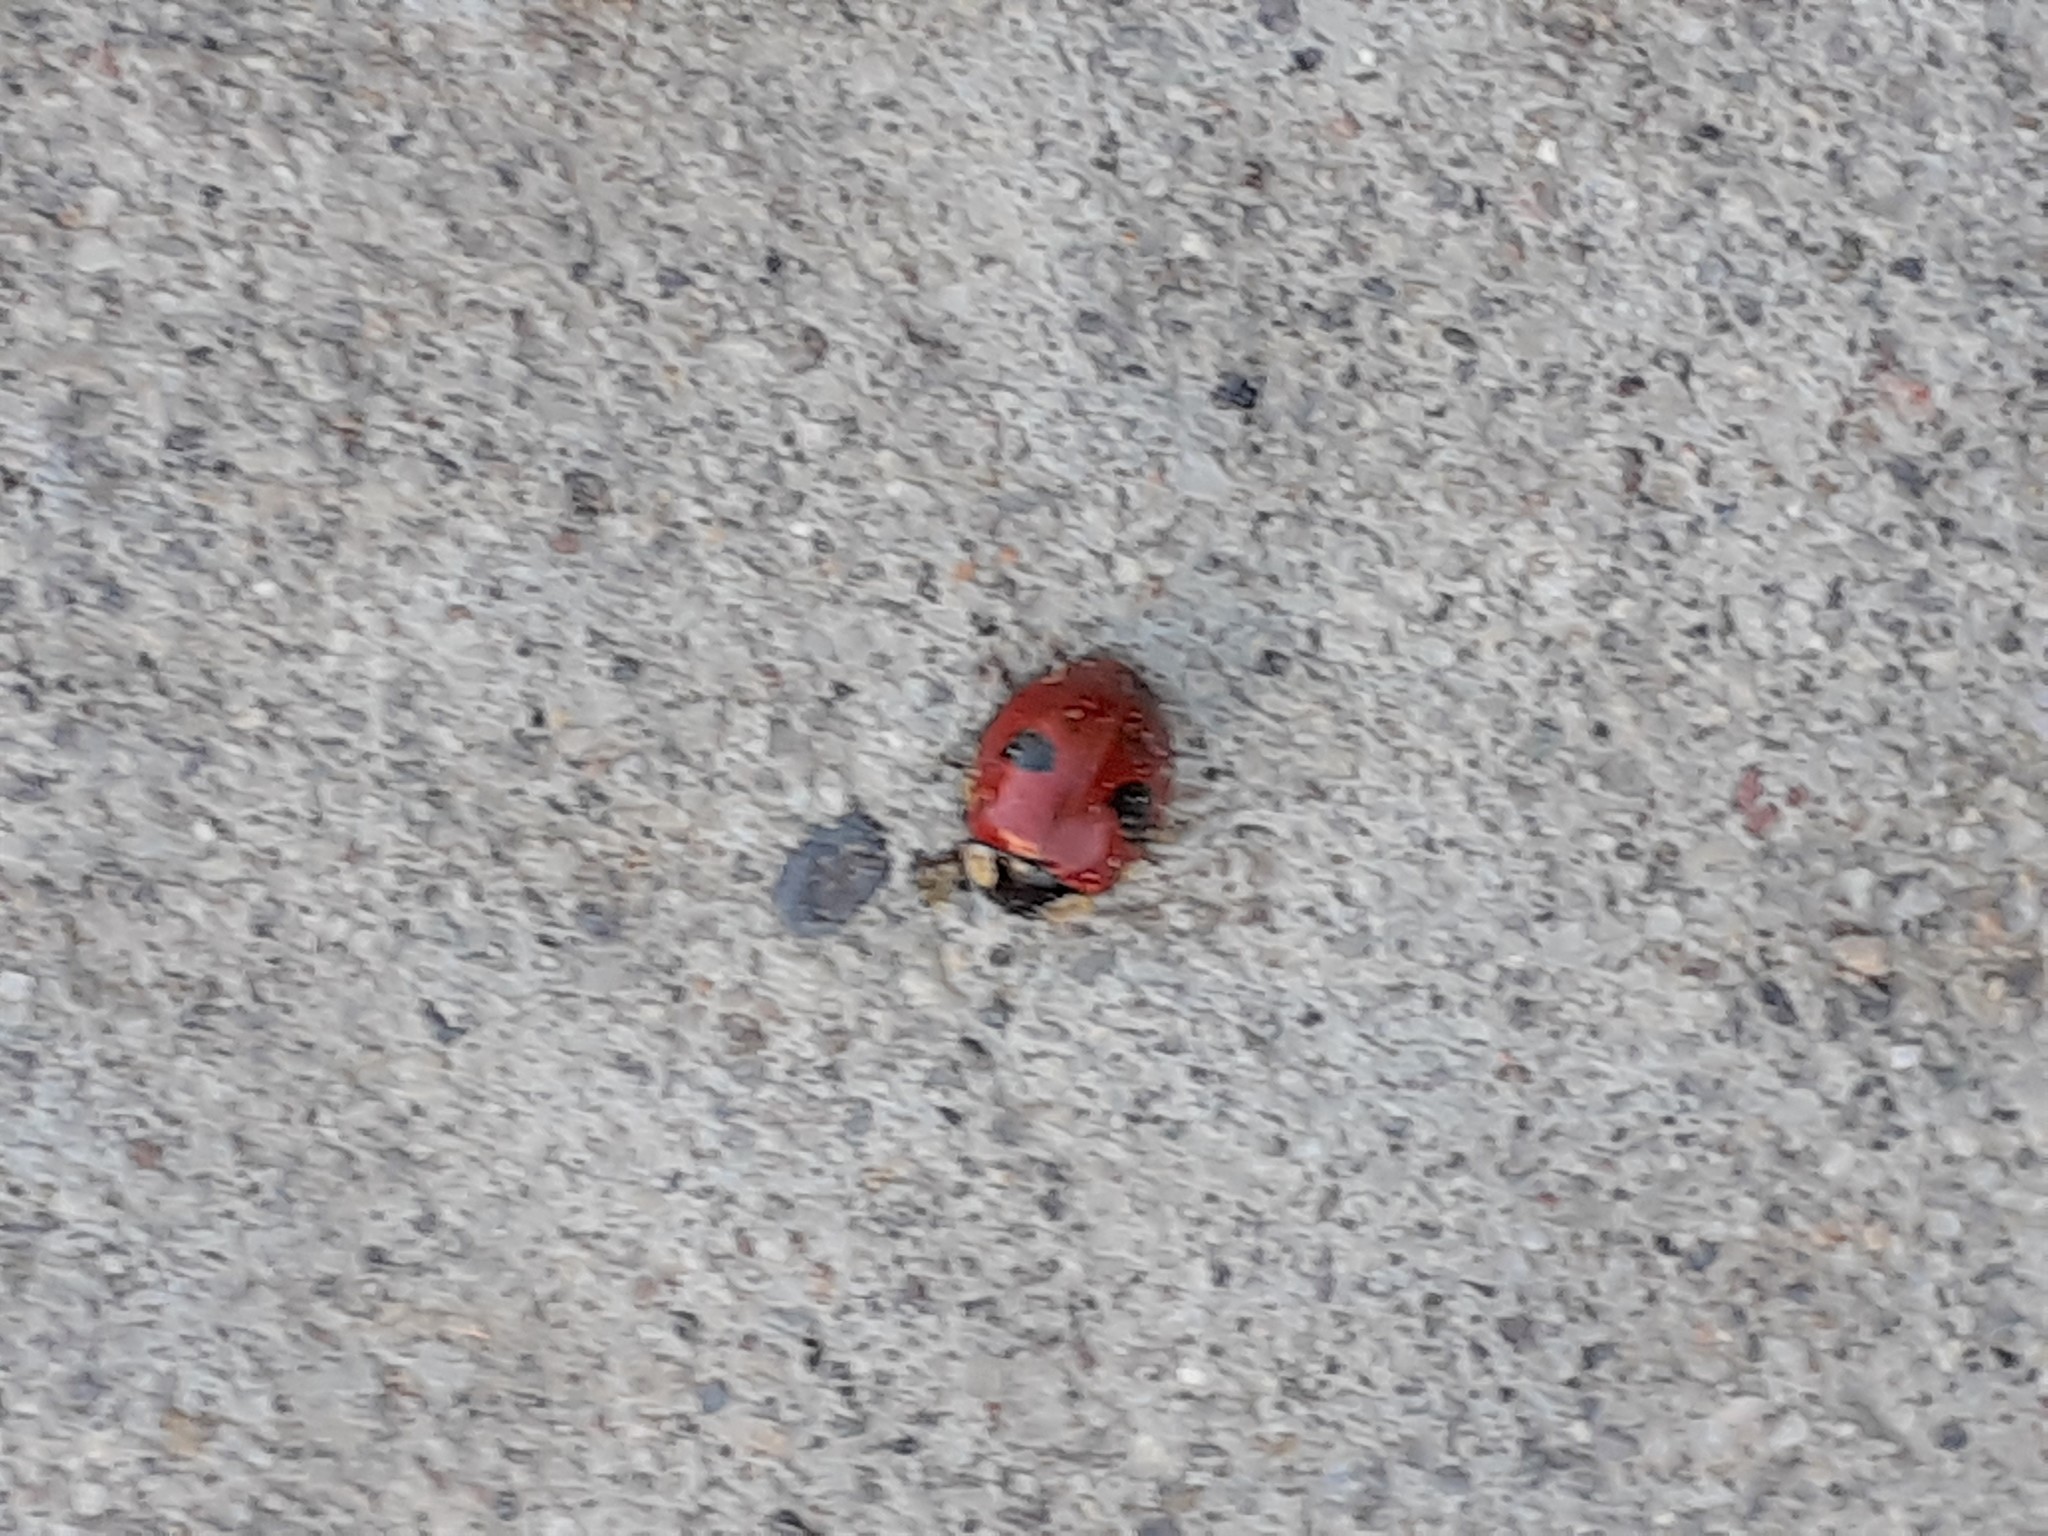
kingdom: Animalia
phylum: Arthropoda
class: Insecta
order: Coleoptera
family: Coccinellidae
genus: Adalia
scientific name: Adalia bipunctata
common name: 2-spot ladybird
